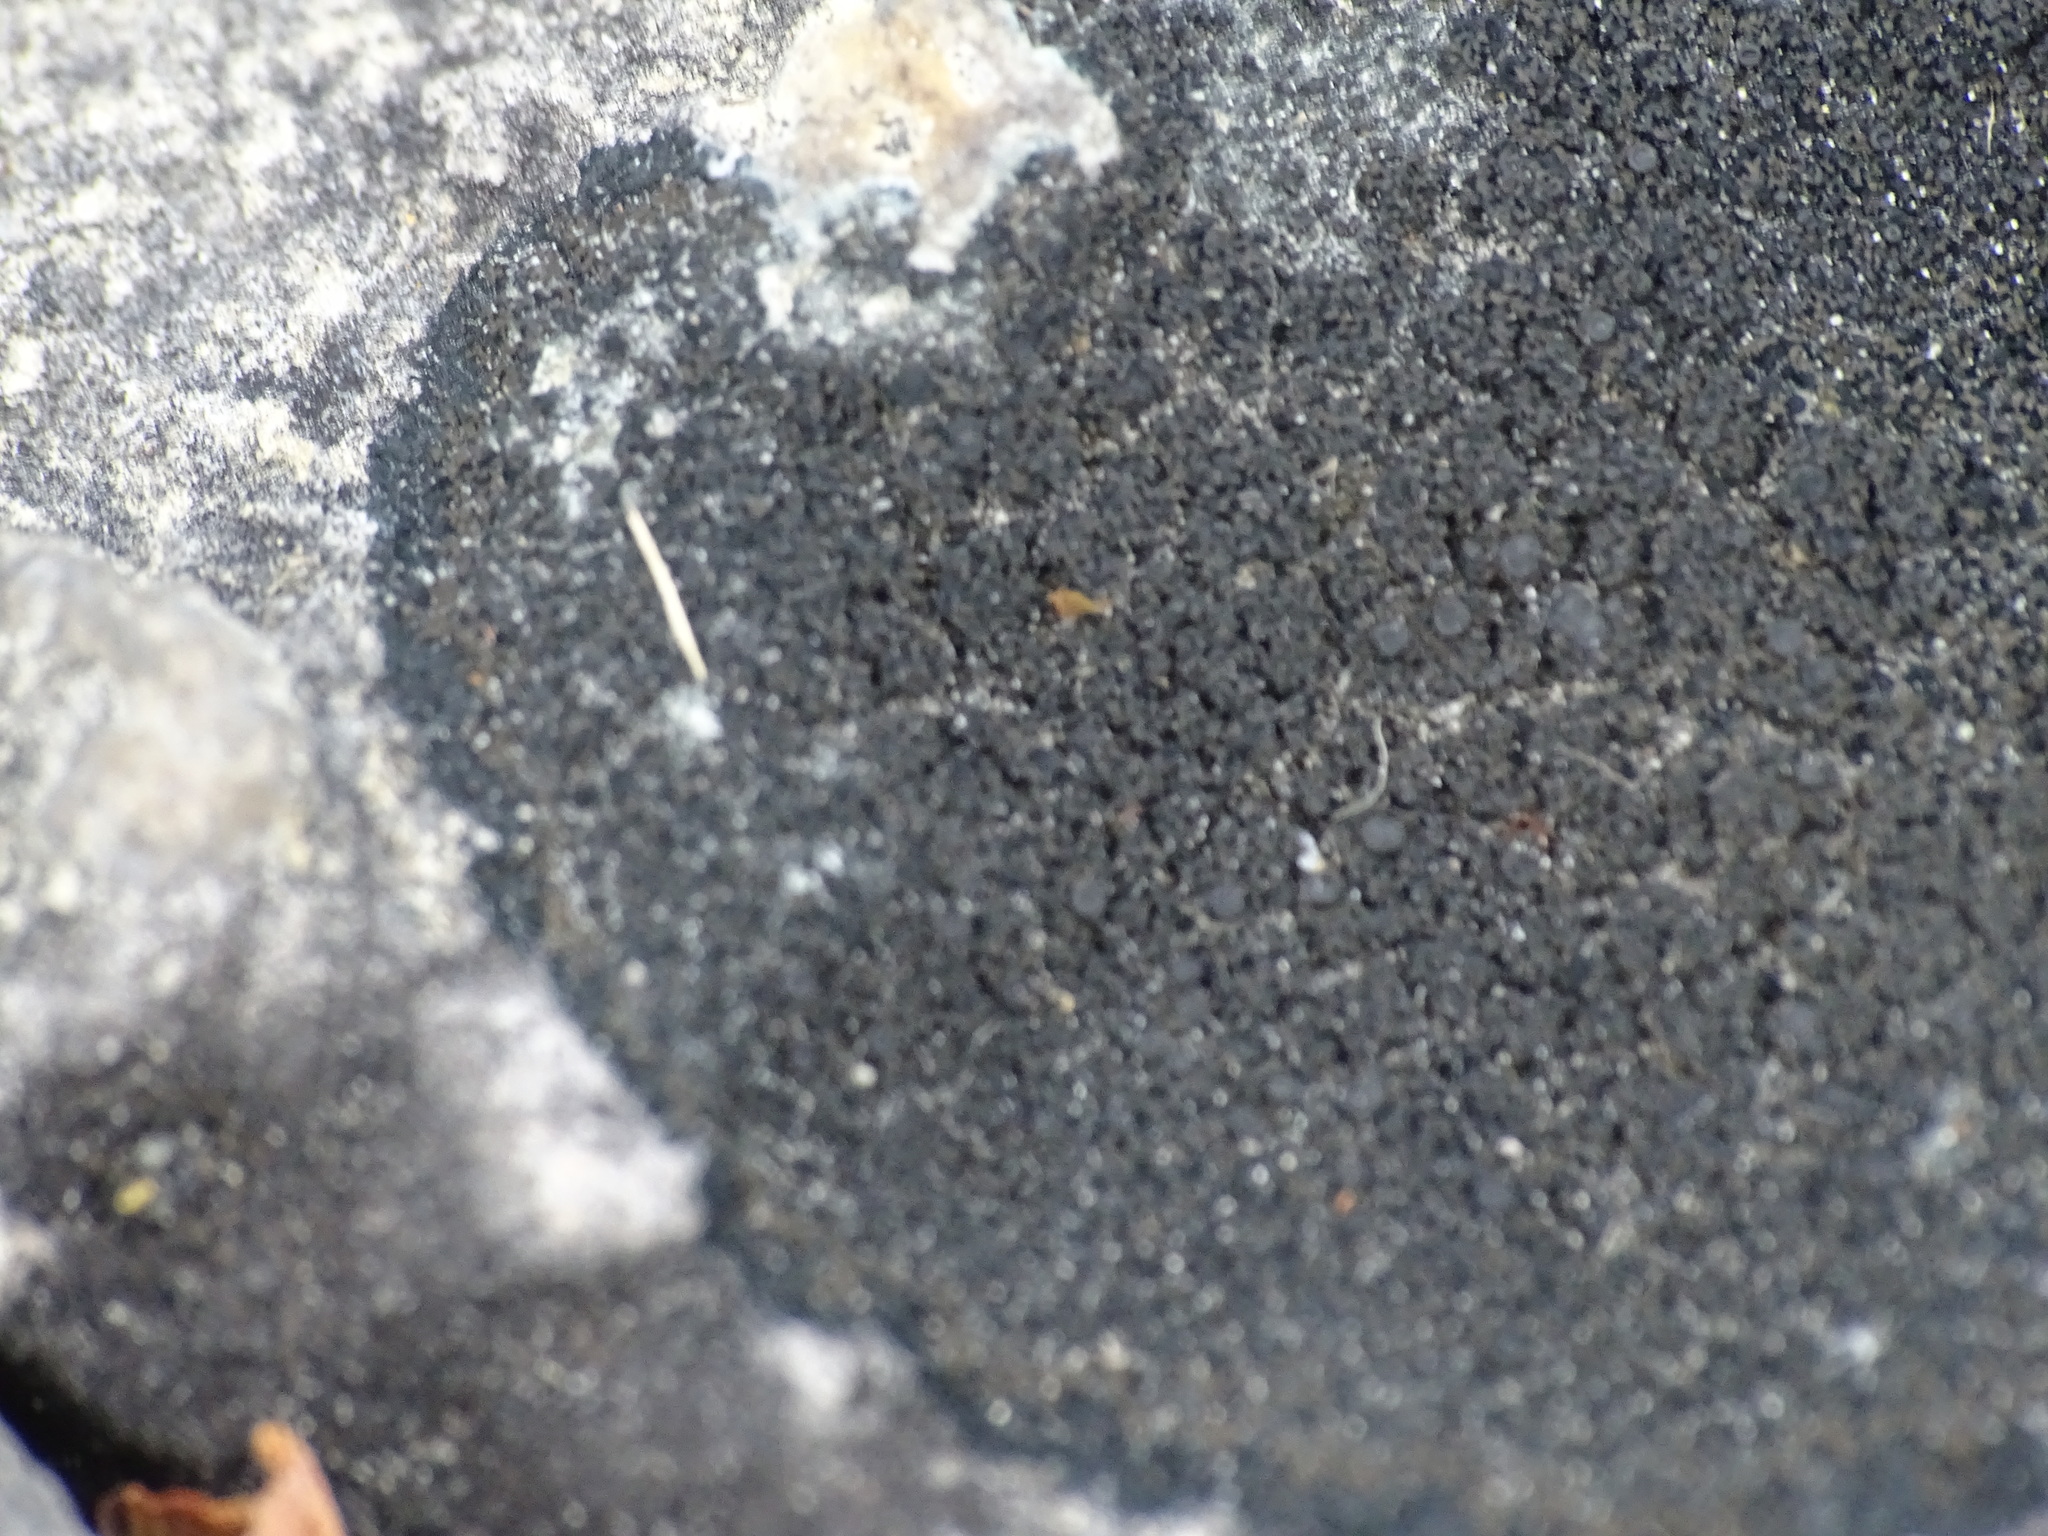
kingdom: Fungi
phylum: Ascomycota
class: Lecanoromycetes
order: Peltigerales
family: Placynthiaceae
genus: Placynthium
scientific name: Placynthium nigrum
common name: Blackthread lichen
